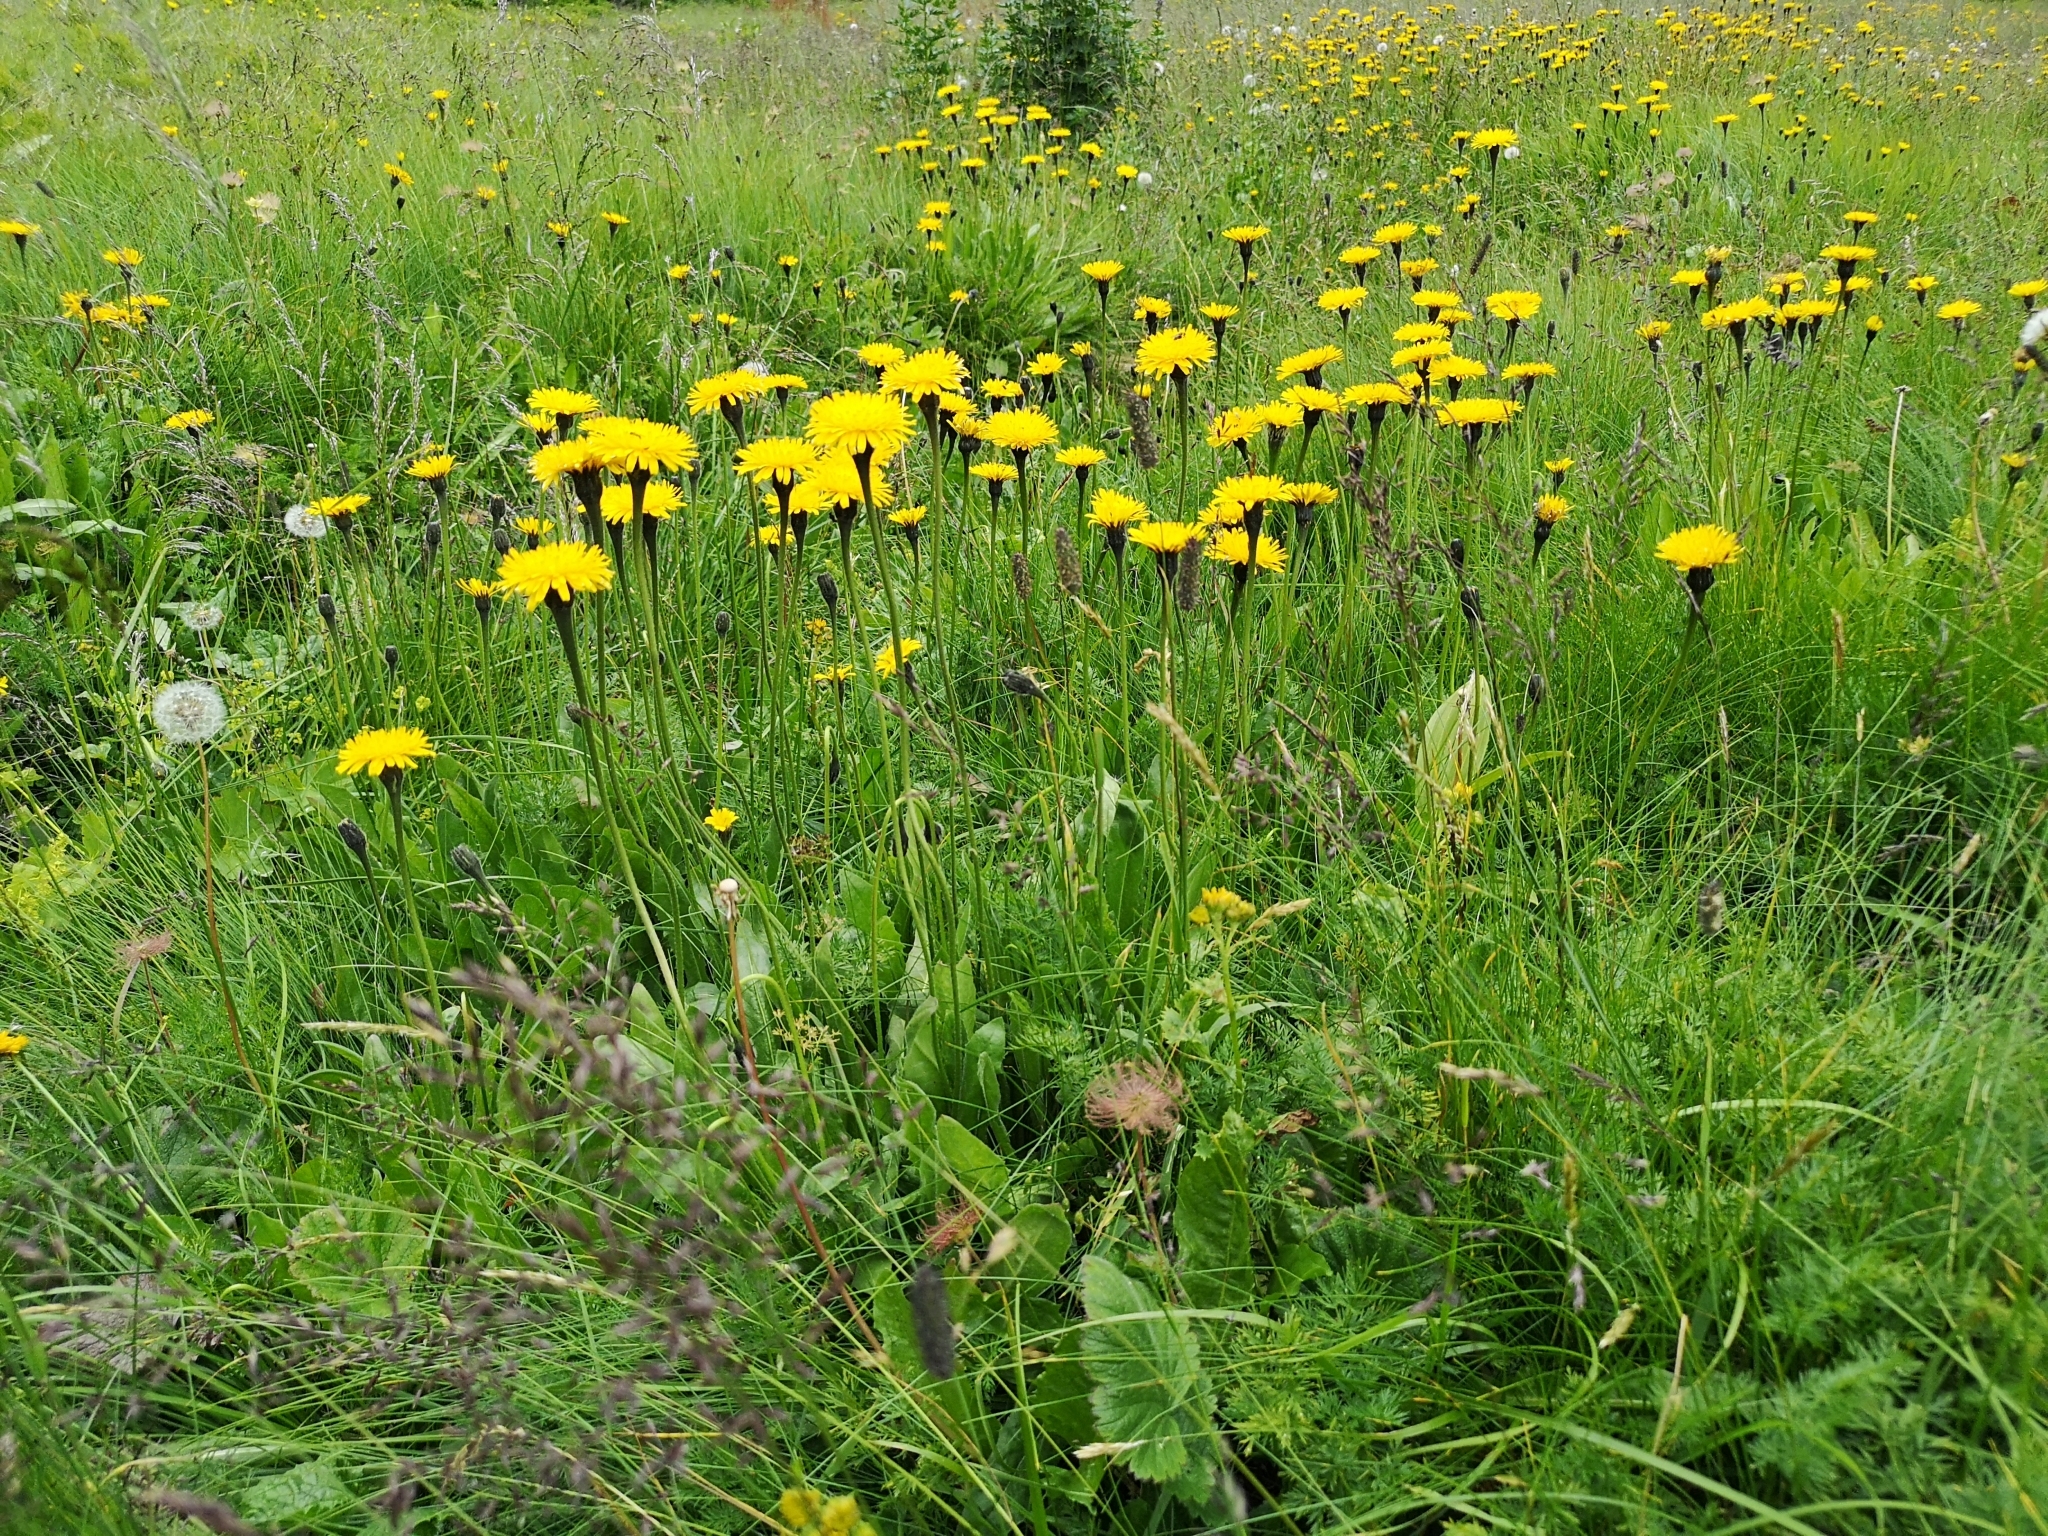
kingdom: Plantae
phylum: Tracheophyta
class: Magnoliopsida
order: Asterales
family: Asteraceae
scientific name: Asteraceae
